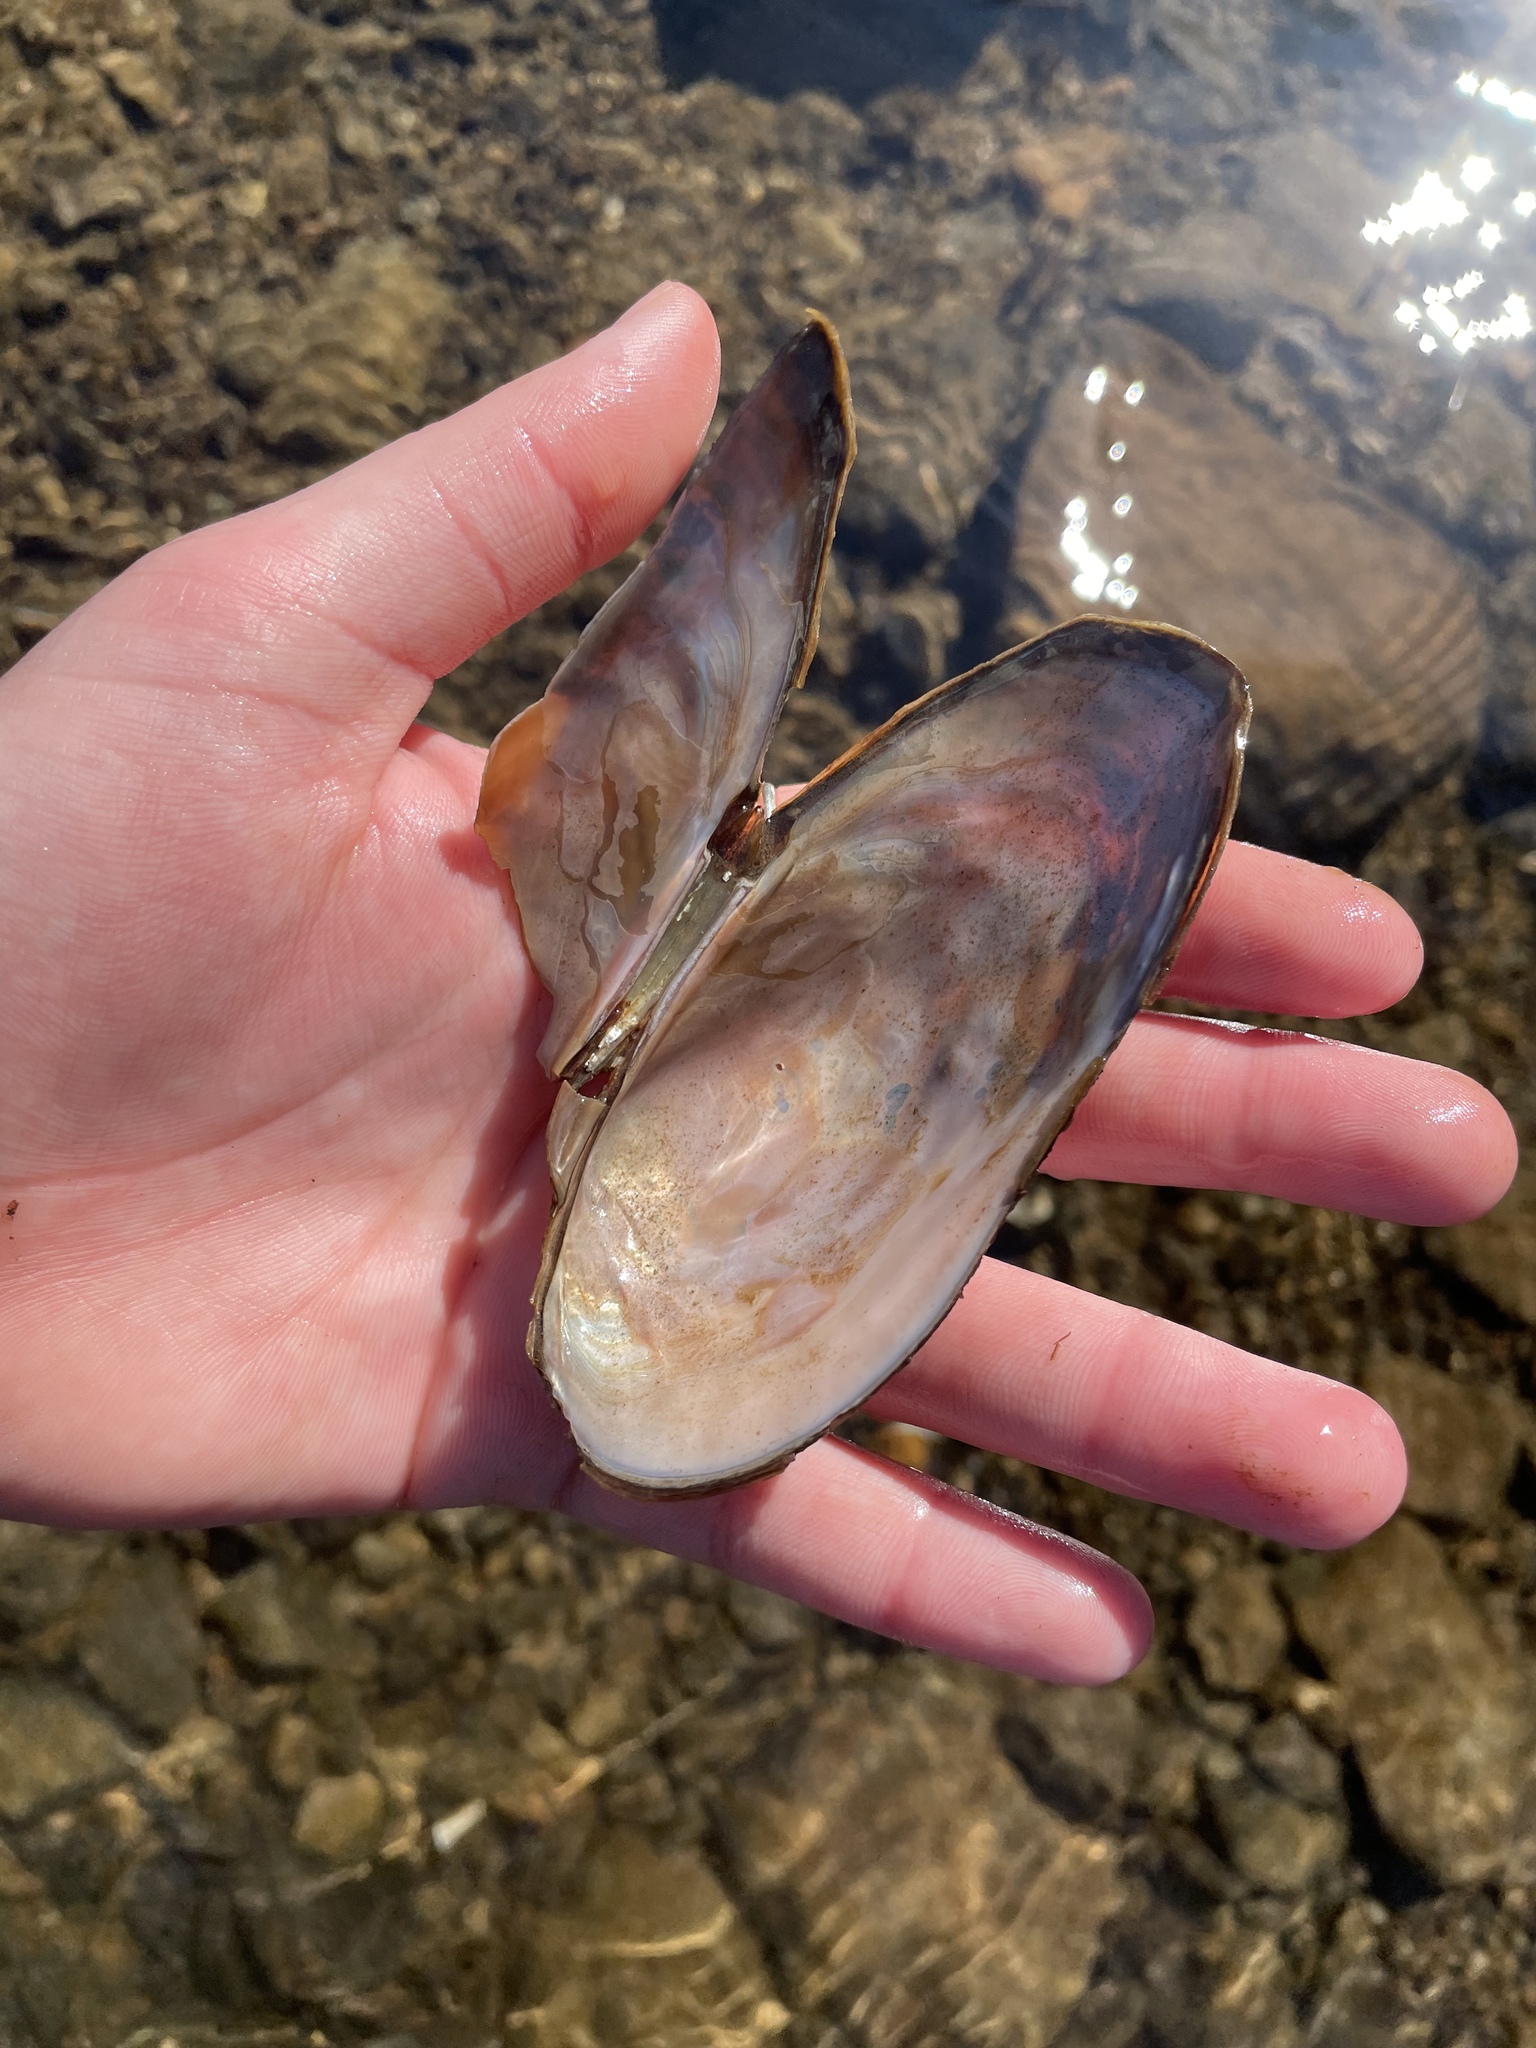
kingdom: Animalia
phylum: Mollusca
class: Bivalvia
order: Unionida
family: Unionidae
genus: Utterbackiana
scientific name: Utterbackiana implicata
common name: Alewife floater
